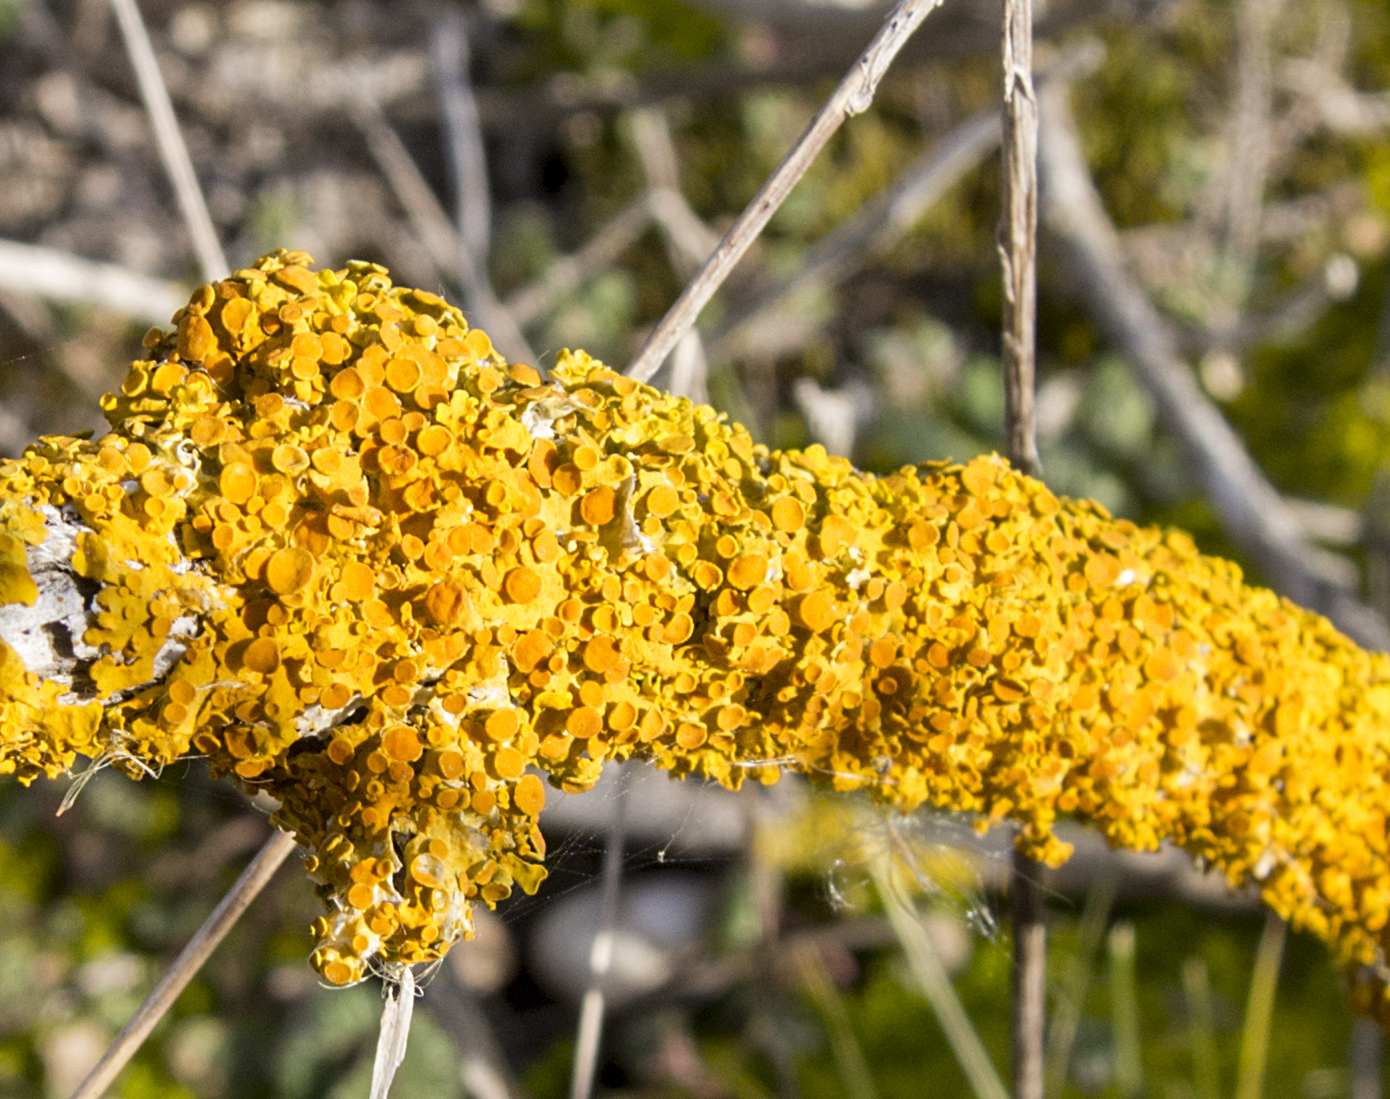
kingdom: Fungi
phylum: Ascomycota
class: Lecanoromycetes
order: Teloschistales
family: Teloschistaceae
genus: Xanthoria
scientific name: Xanthoria parietina
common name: Common orange lichen
